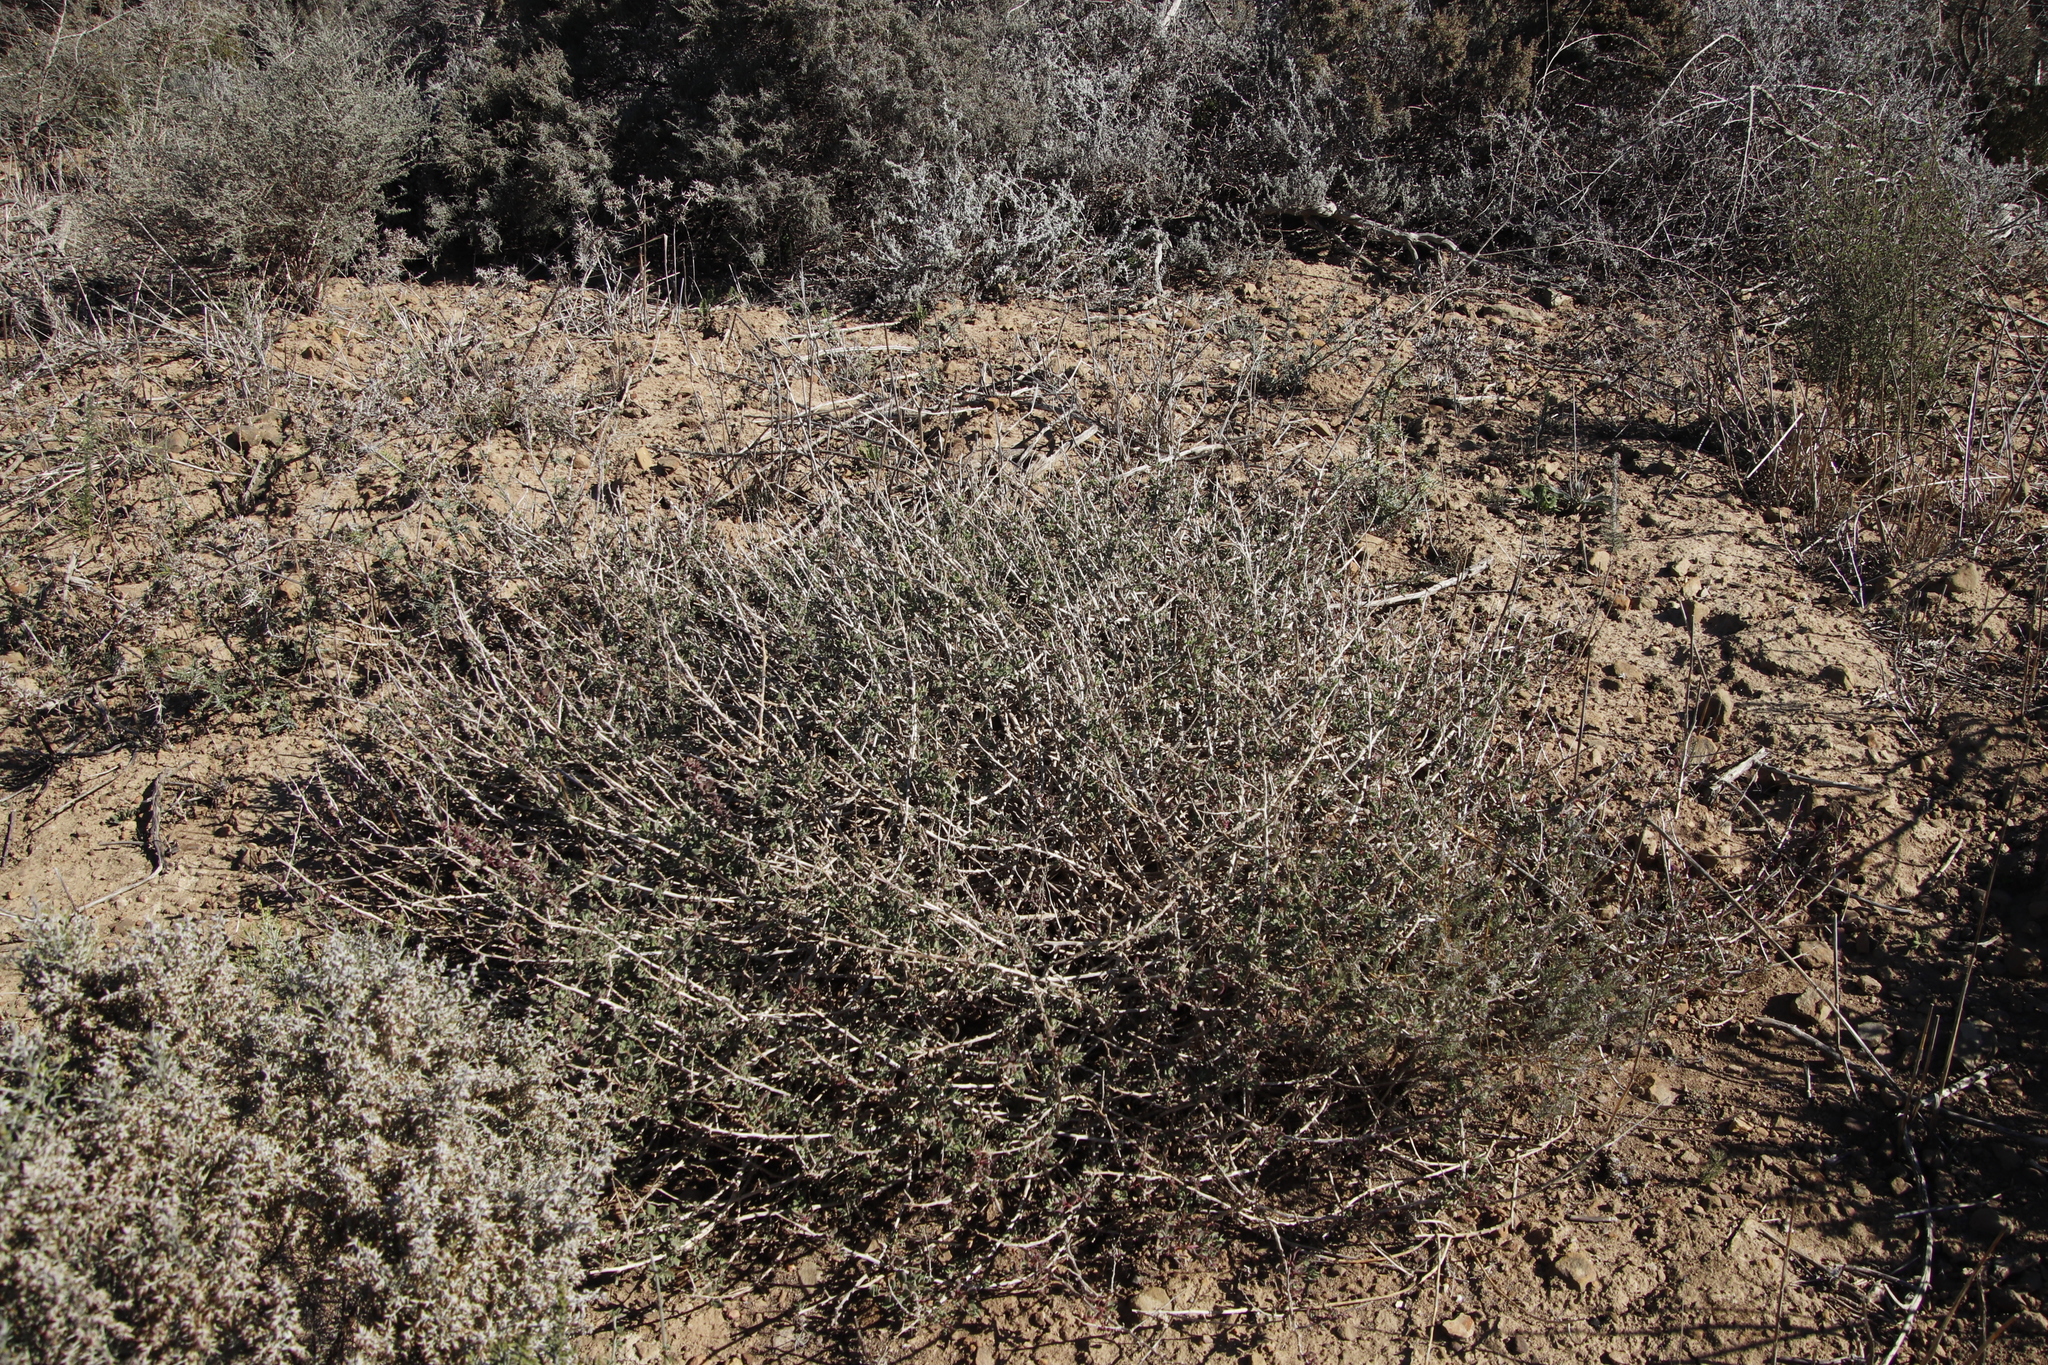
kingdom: Plantae
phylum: Tracheophyta
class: Magnoliopsida
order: Caryophyllales
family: Aizoaceae
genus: Tetragonia
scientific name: Tetragonia saligna
